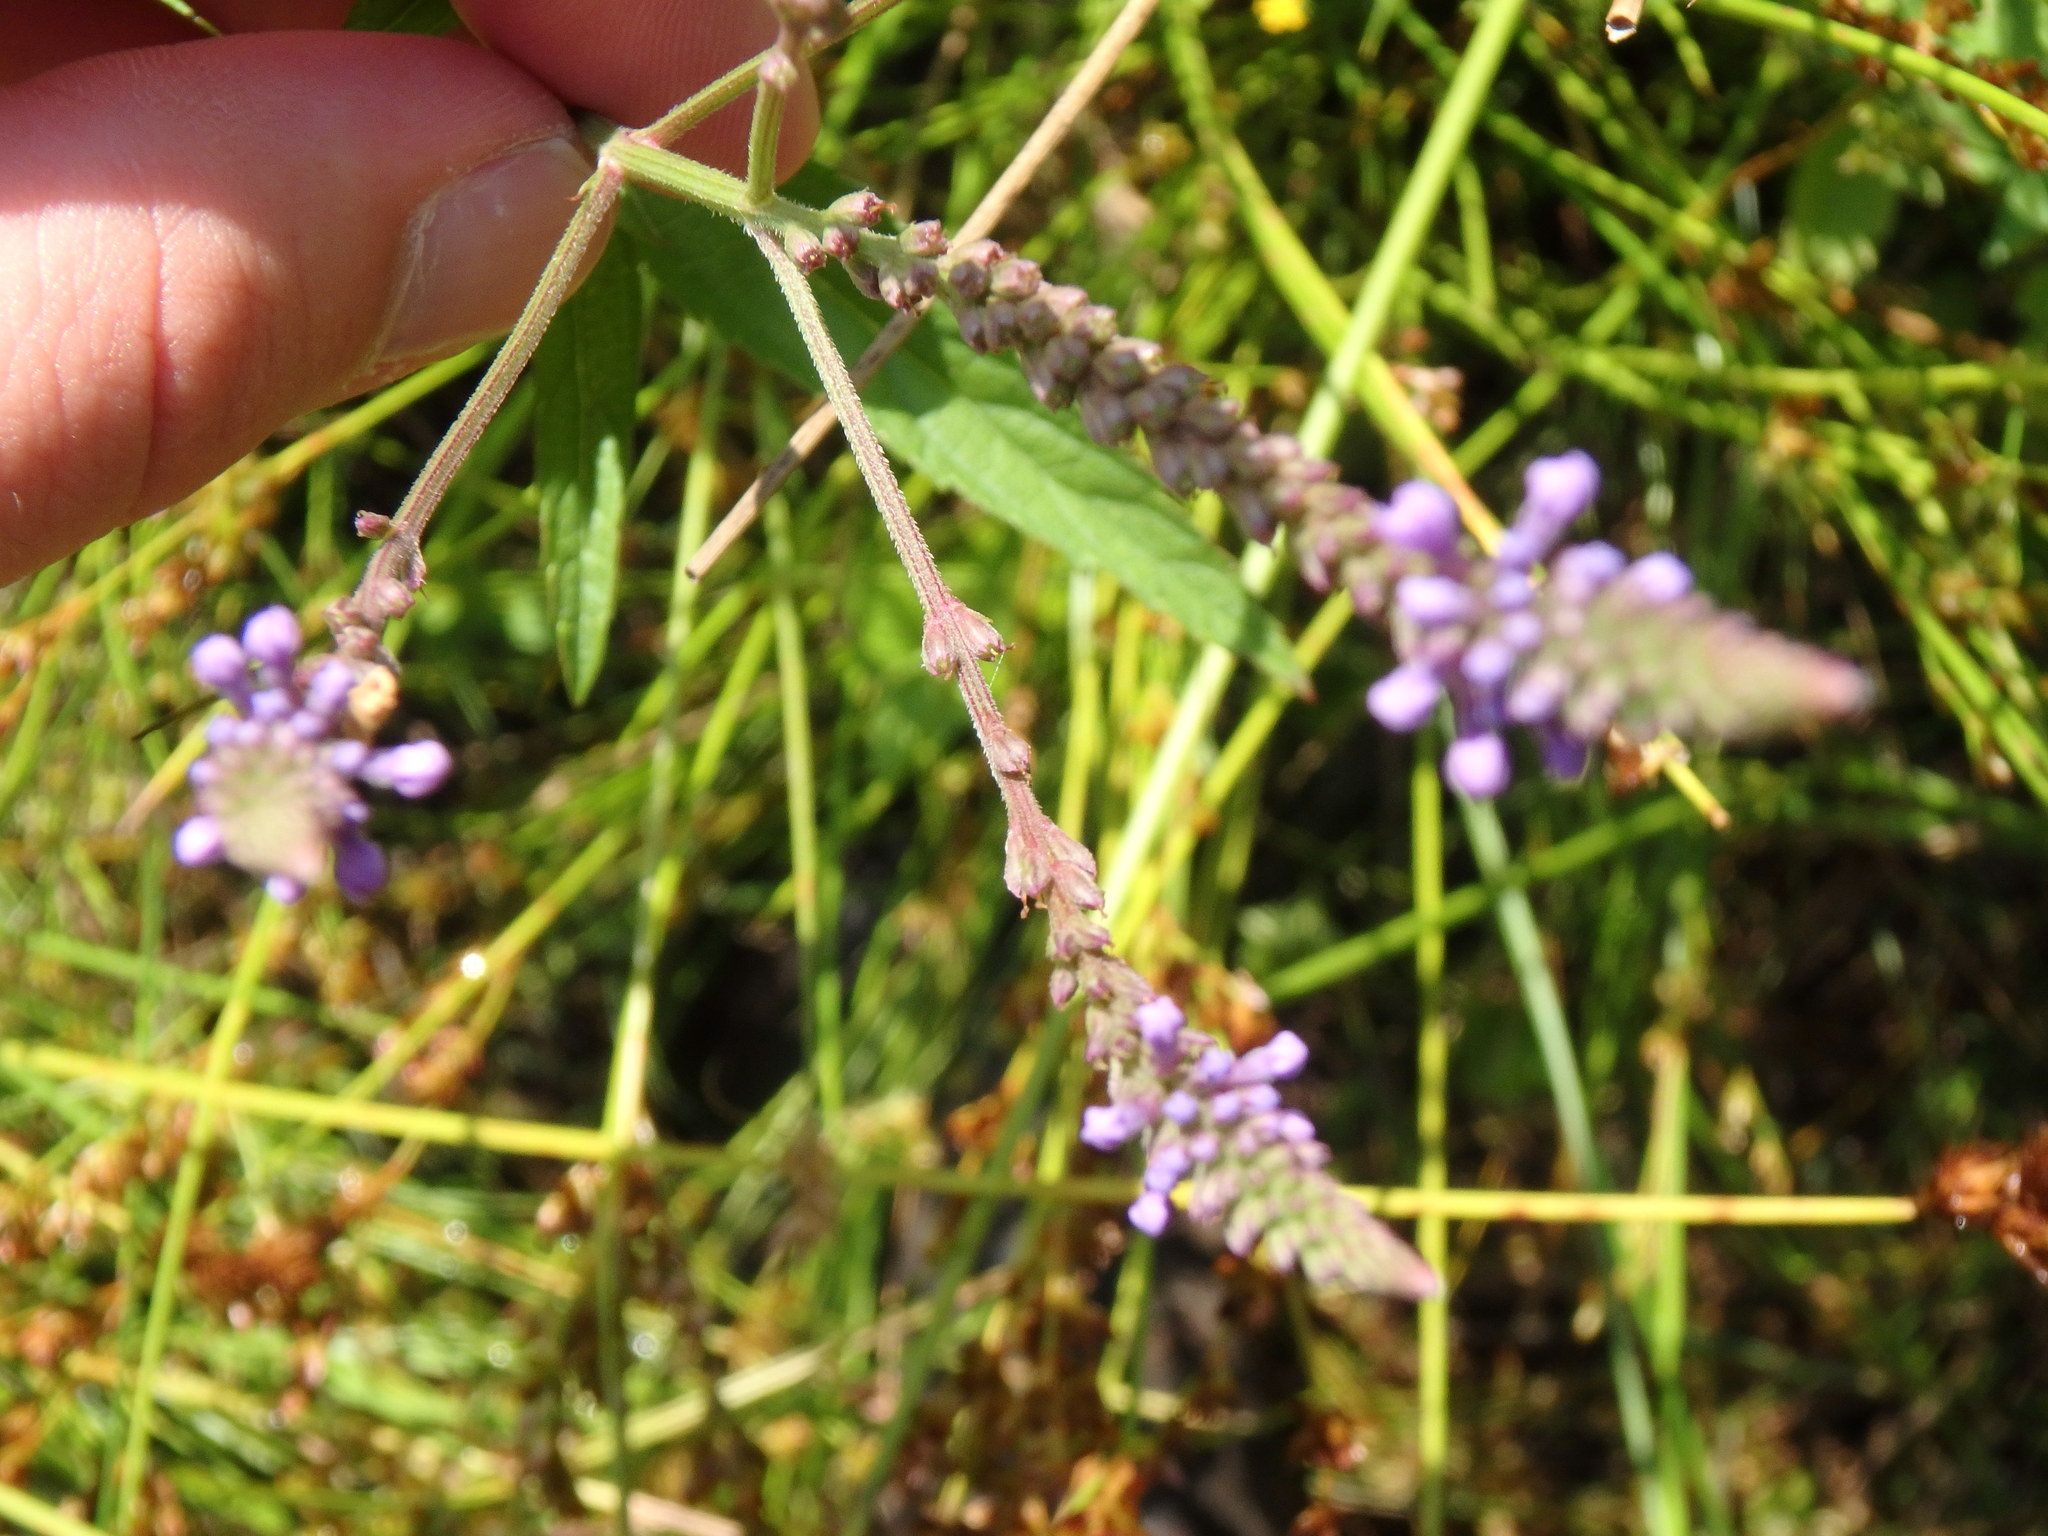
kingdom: Plantae
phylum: Tracheophyta
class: Magnoliopsida
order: Lamiales
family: Verbenaceae
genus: Verbena
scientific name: Verbena hastata
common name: American blue vervain
